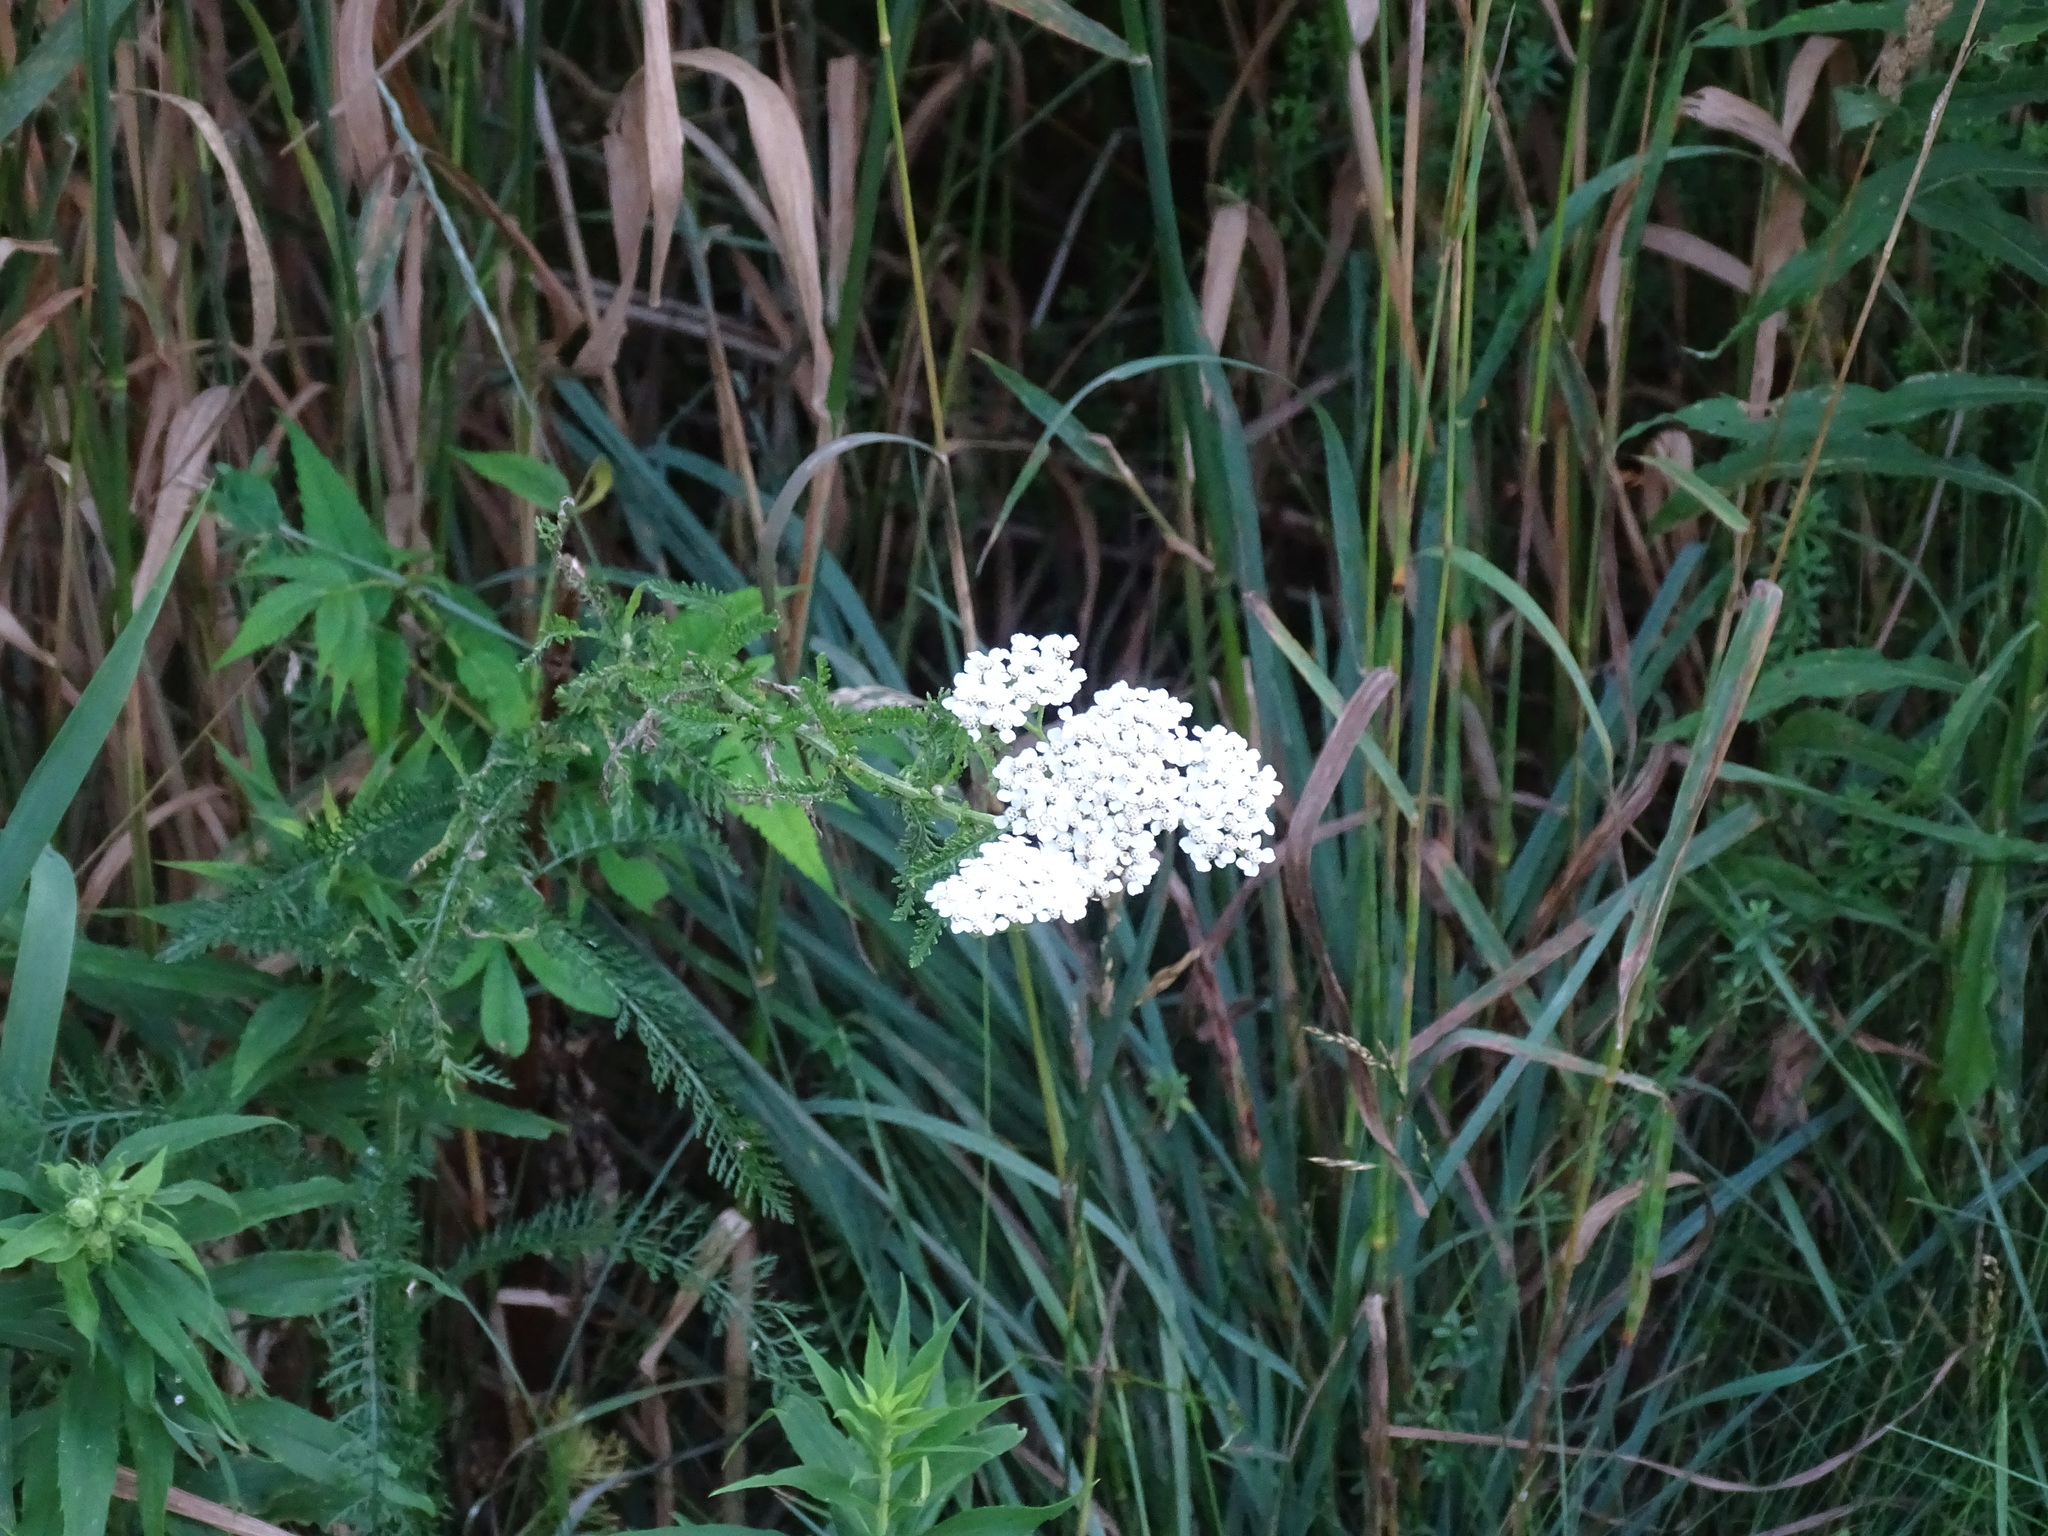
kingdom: Plantae
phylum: Tracheophyta
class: Magnoliopsida
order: Asterales
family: Asteraceae
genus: Achillea
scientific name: Achillea millefolium
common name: Yarrow
